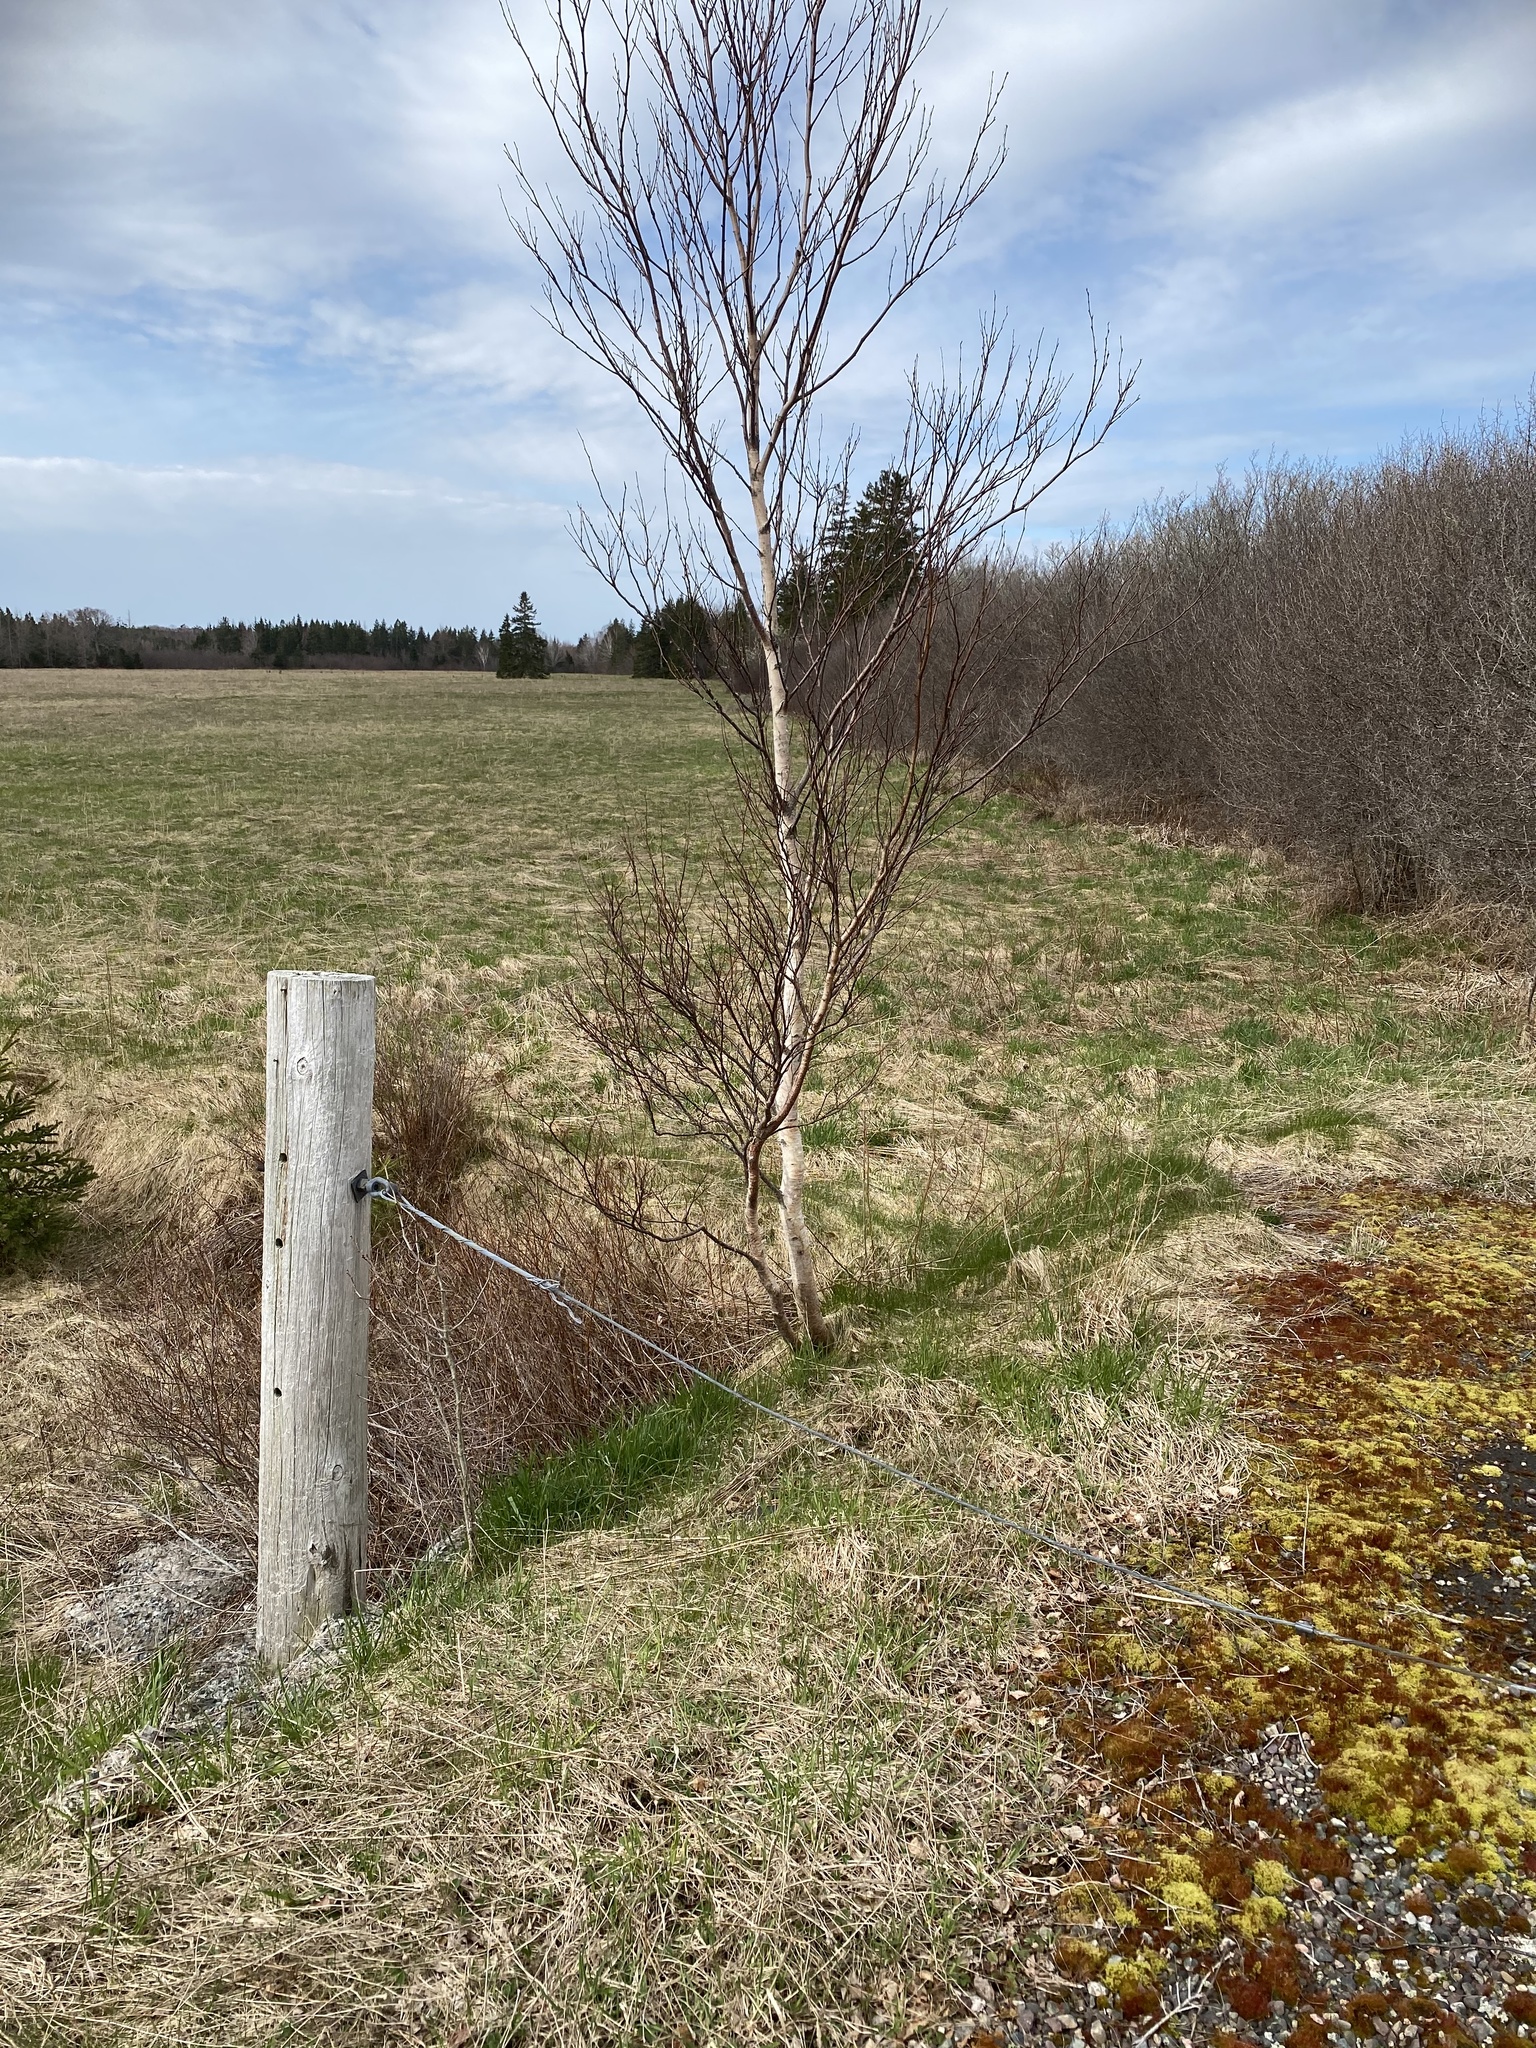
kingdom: Plantae
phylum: Tracheophyta
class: Magnoliopsida
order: Fagales
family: Betulaceae
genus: Betula
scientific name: Betula papyrifera
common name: Paper birch
